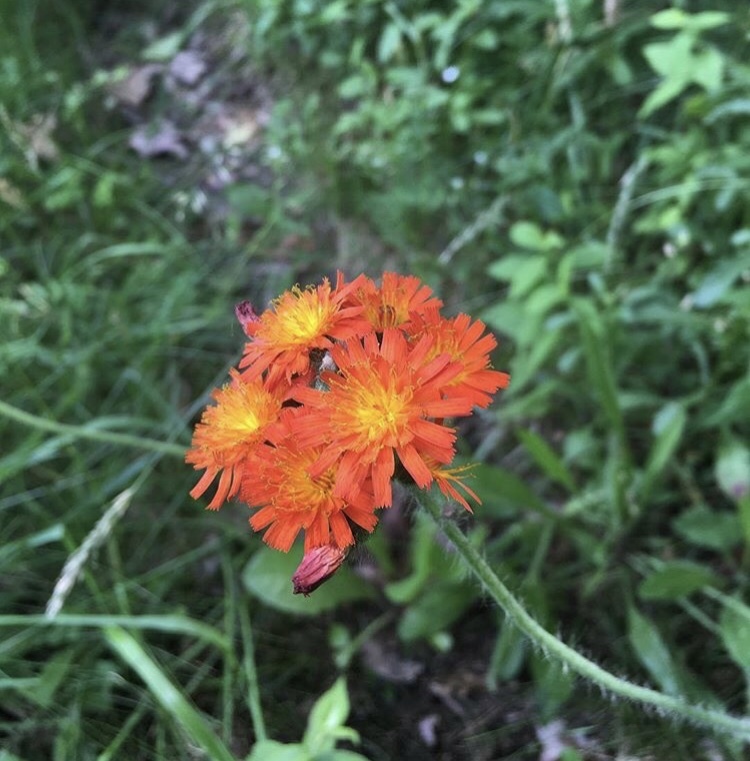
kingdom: Plantae
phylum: Tracheophyta
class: Magnoliopsida
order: Asterales
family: Asteraceae
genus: Pilosella
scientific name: Pilosella aurantiaca
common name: Fox-and-cubs
